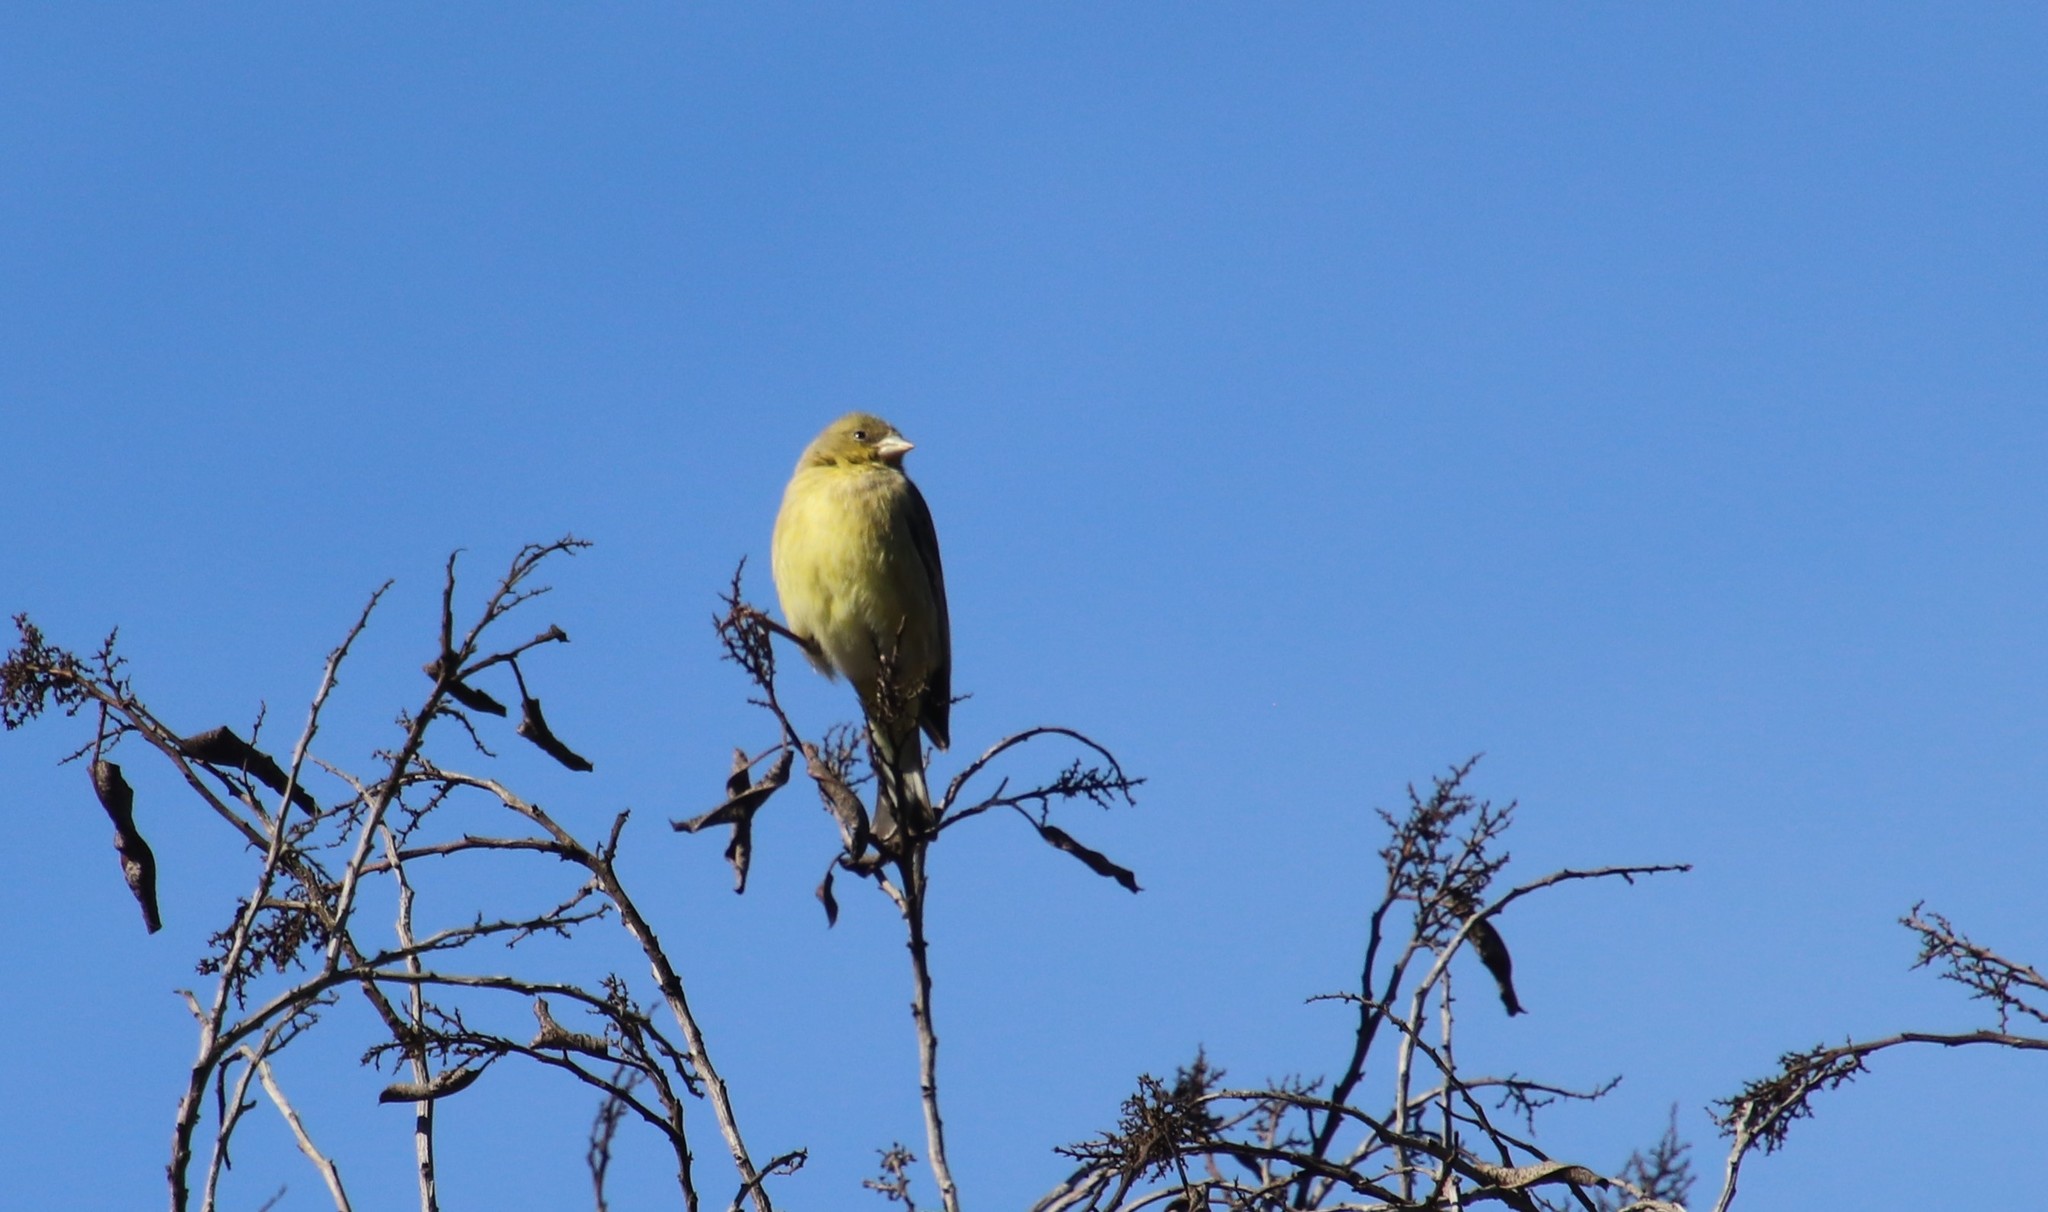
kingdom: Animalia
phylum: Chordata
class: Aves
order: Passeriformes
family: Fringillidae
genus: Spinus
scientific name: Spinus psaltria
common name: Lesser goldfinch
